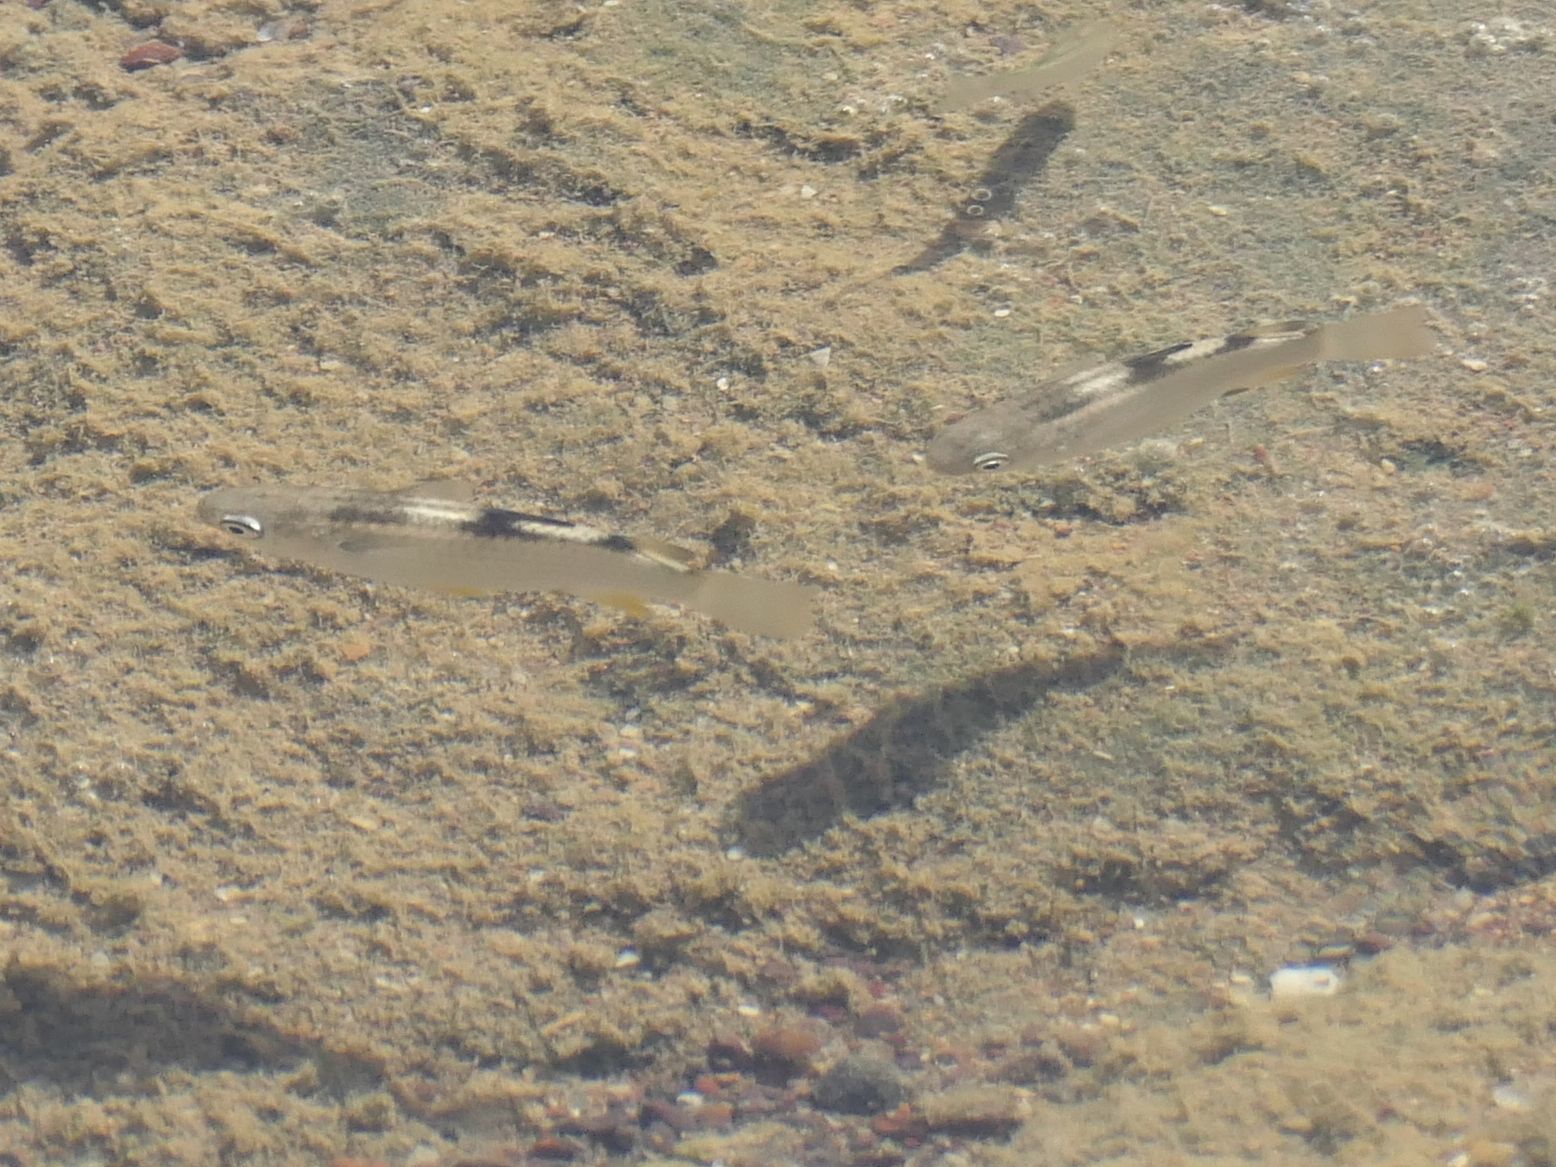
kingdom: Animalia
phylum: Chordata
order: Mugiliformes
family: Mugilidae
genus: Ellochelon
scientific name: Ellochelon vaigiensis
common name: Squaretail mullet
